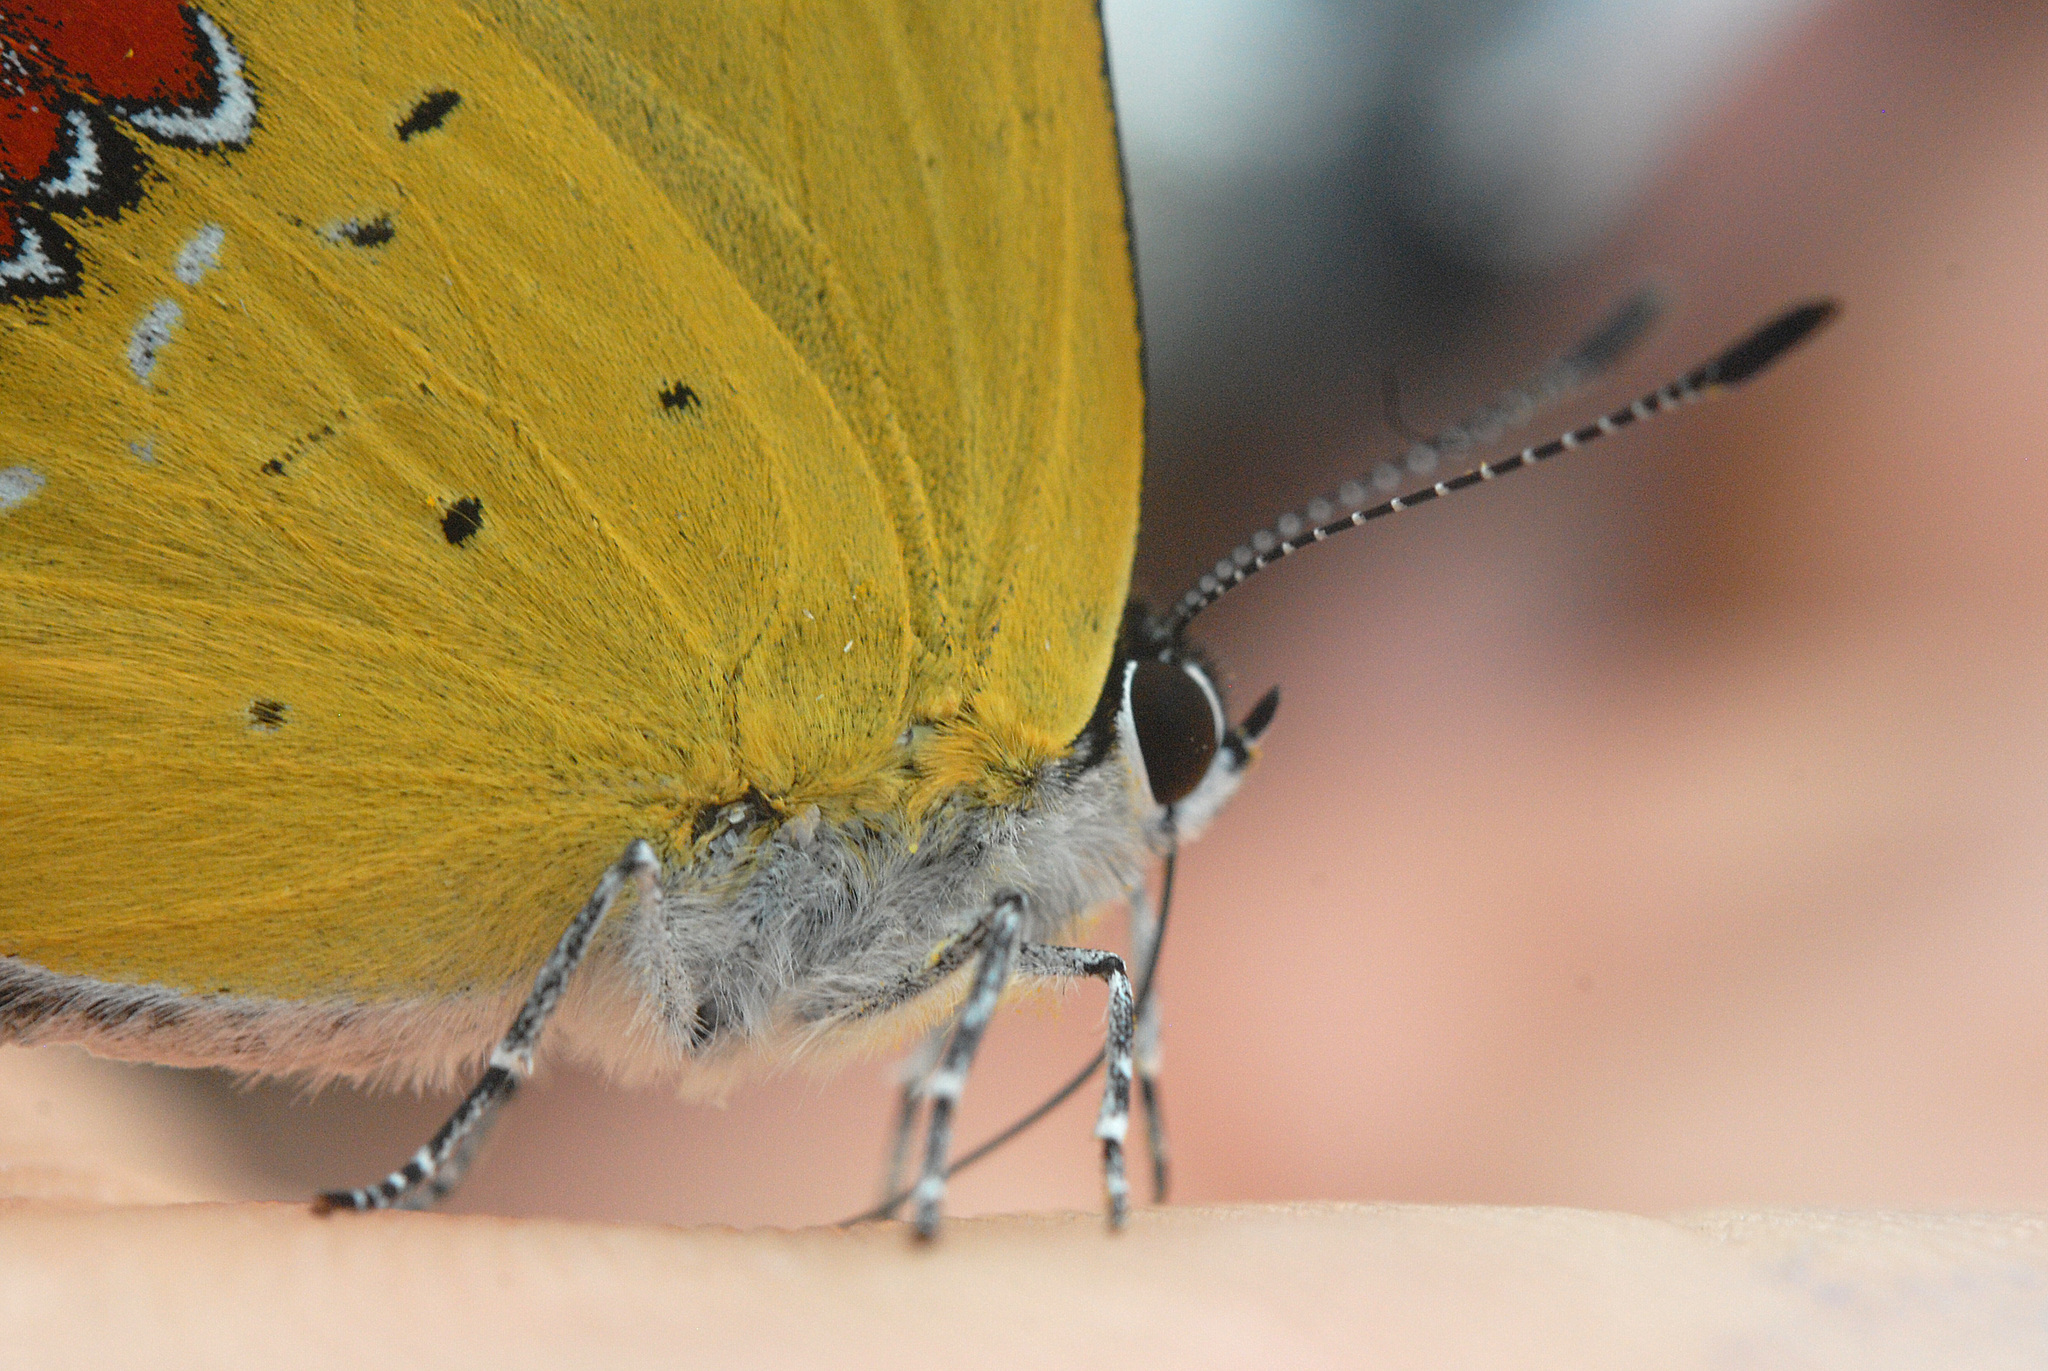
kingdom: Animalia
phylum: Arthropoda
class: Insecta
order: Lepidoptera
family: Lycaenidae
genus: Heliophorus
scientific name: Heliophorus ila
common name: Restricted purple sapphire
